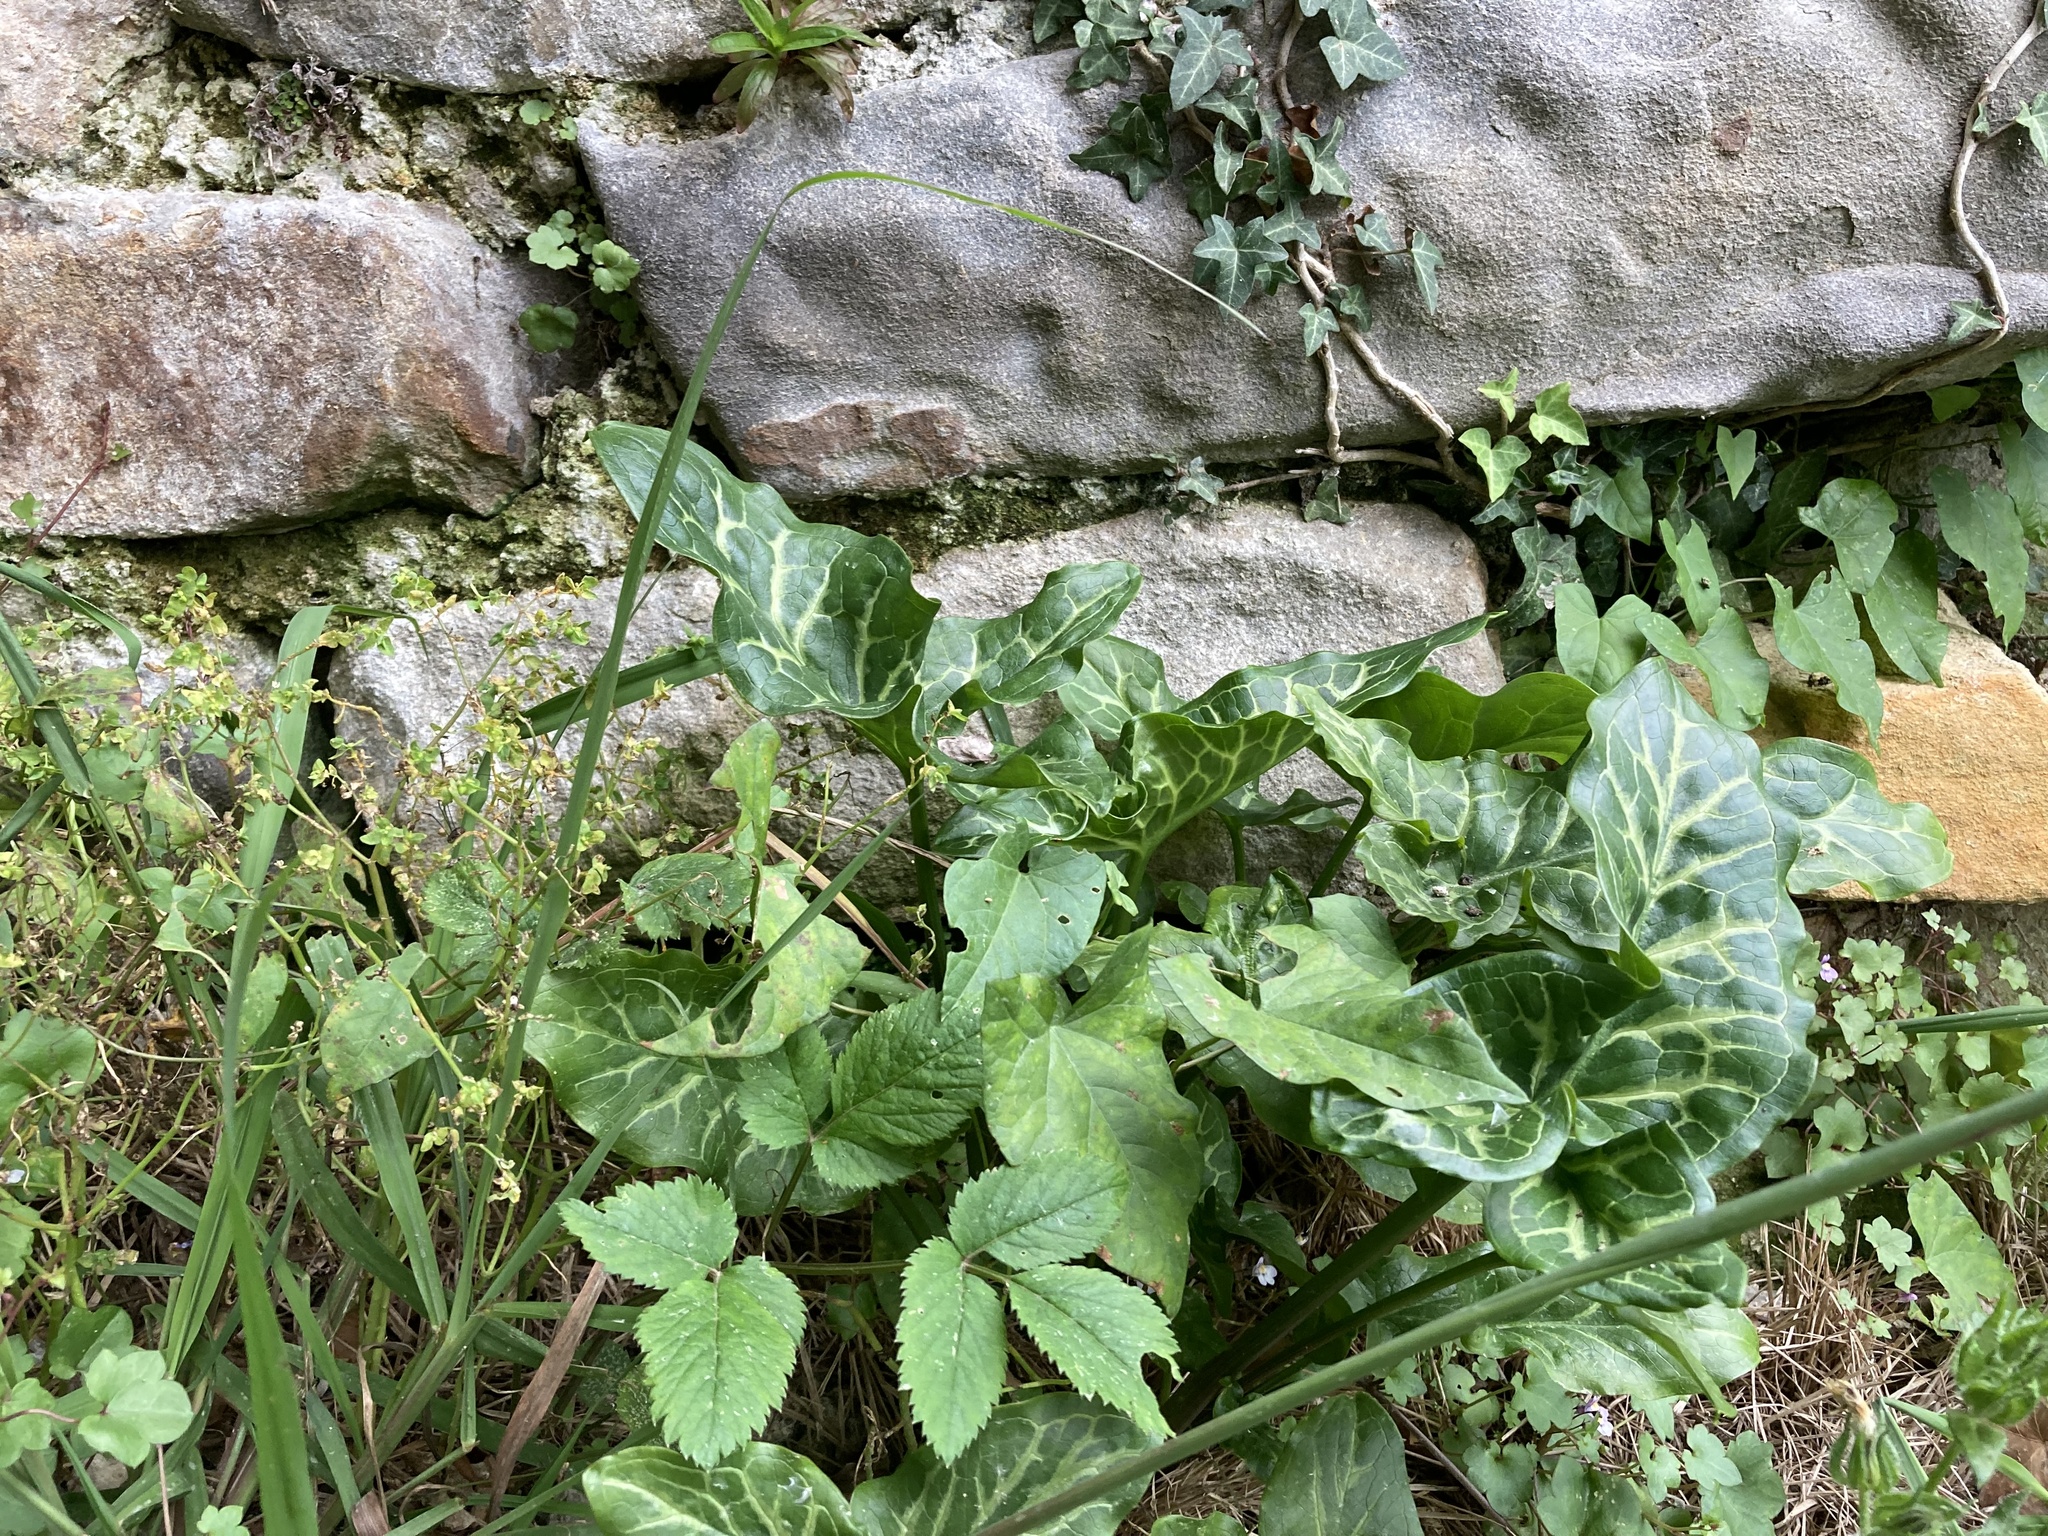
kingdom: Plantae
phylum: Tracheophyta
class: Liliopsida
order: Alismatales
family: Araceae
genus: Arum
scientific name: Arum italicum
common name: Italian lords-and-ladies
